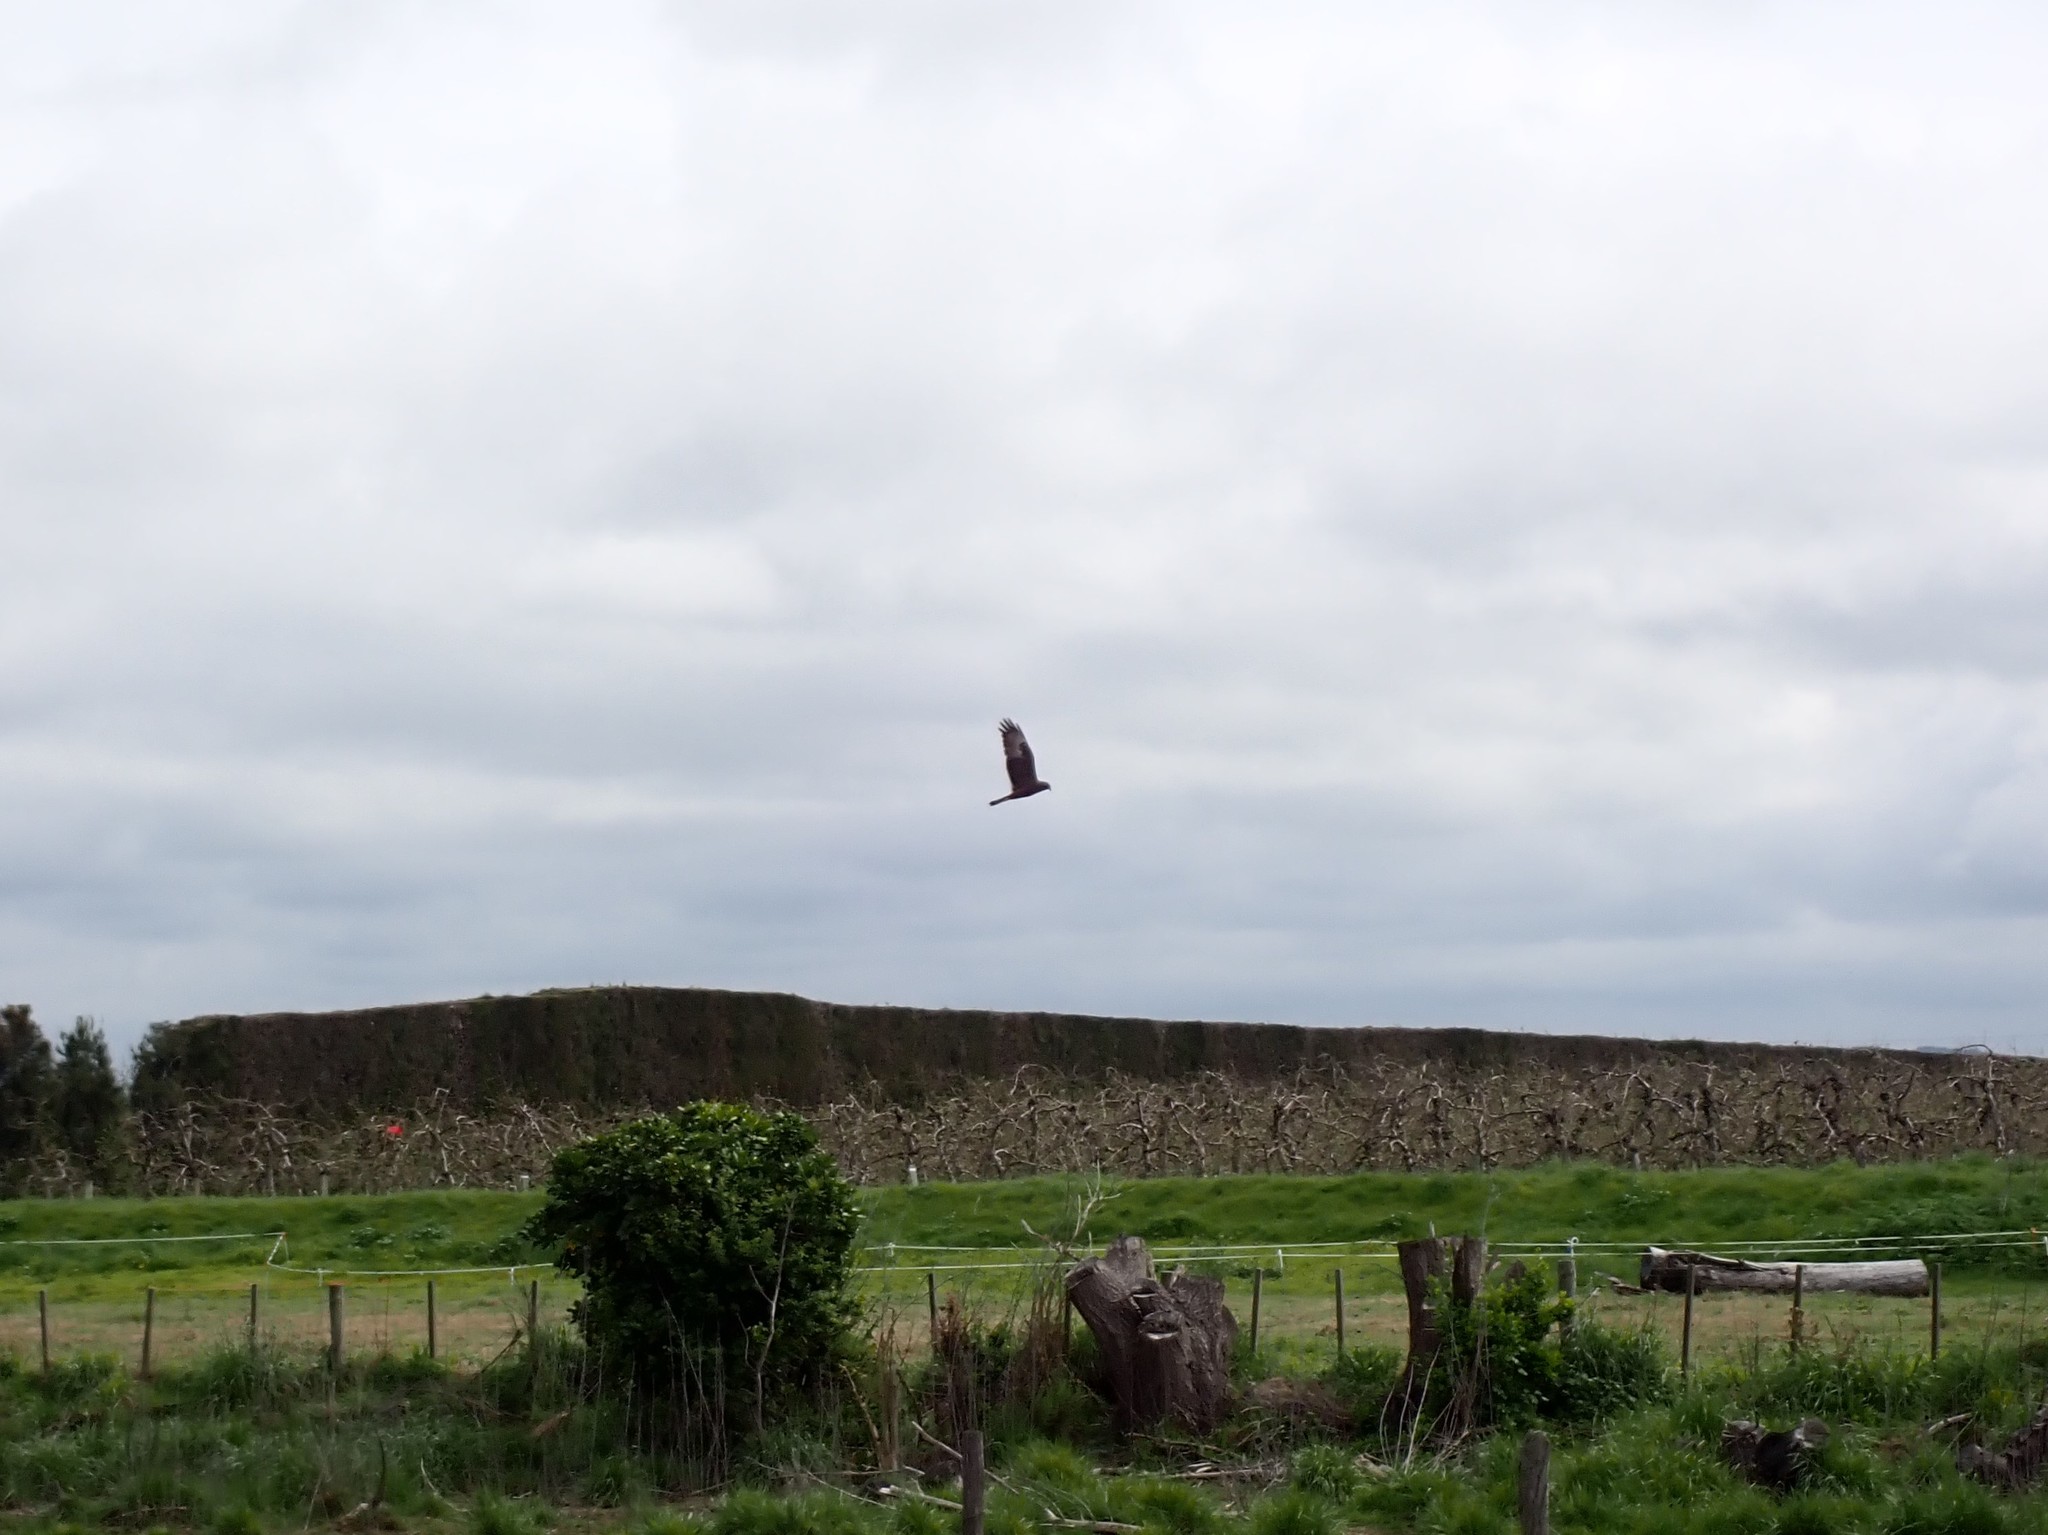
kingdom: Animalia
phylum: Chordata
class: Aves
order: Accipitriformes
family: Accipitridae
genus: Circus
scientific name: Circus approximans
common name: Swamp harrier
